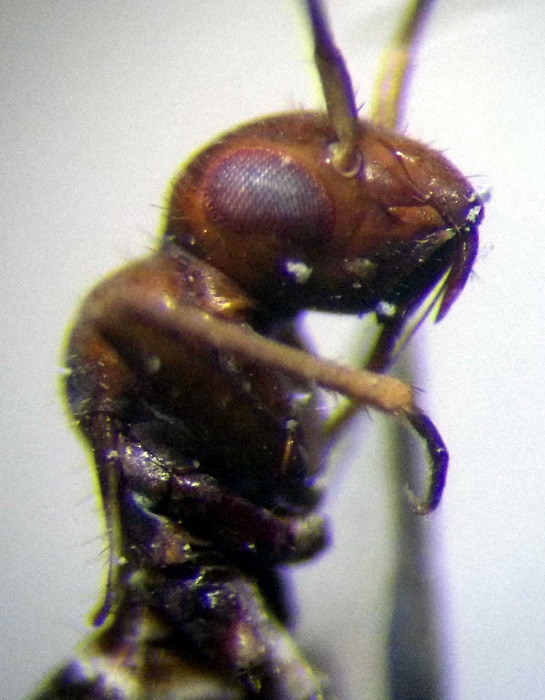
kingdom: Animalia
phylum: Arthropoda
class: Insecta
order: Hemiptera
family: Miridae
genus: Systellonotus
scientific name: Systellonotus triguttatus
